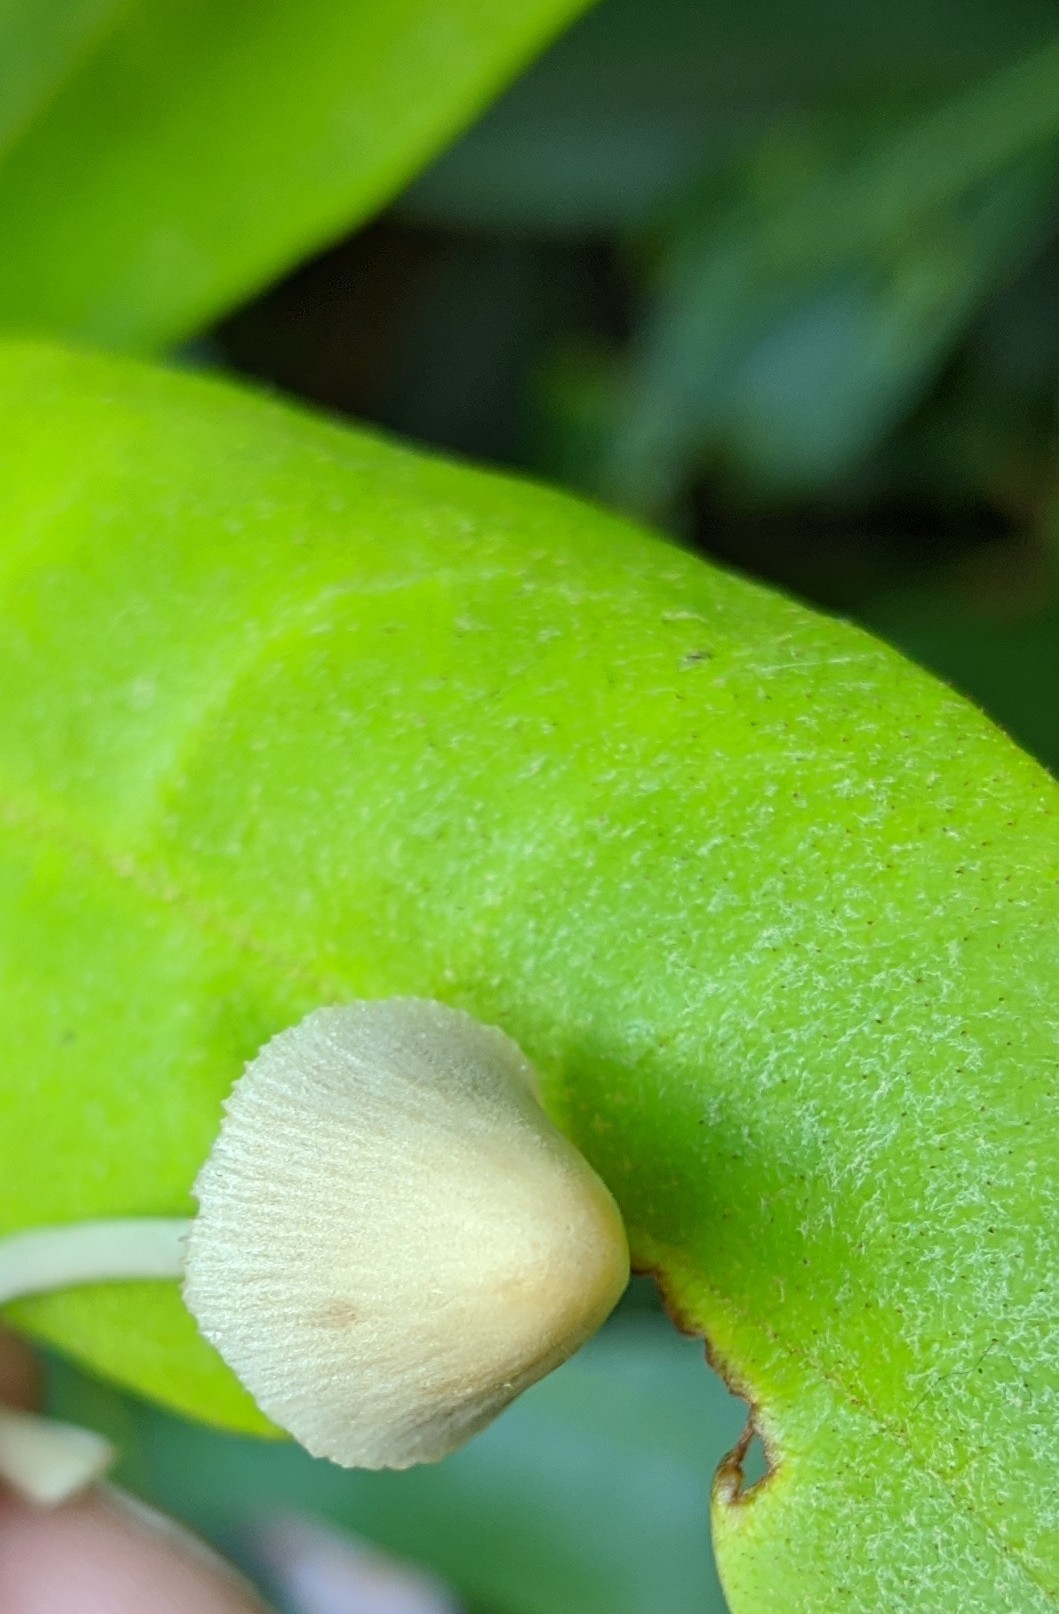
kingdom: Fungi
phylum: Basidiomycota
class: Agaricomycetes
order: Agaricales
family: Bolbitiaceae
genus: Conocybe
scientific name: Conocybe apala
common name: Milky conecap
